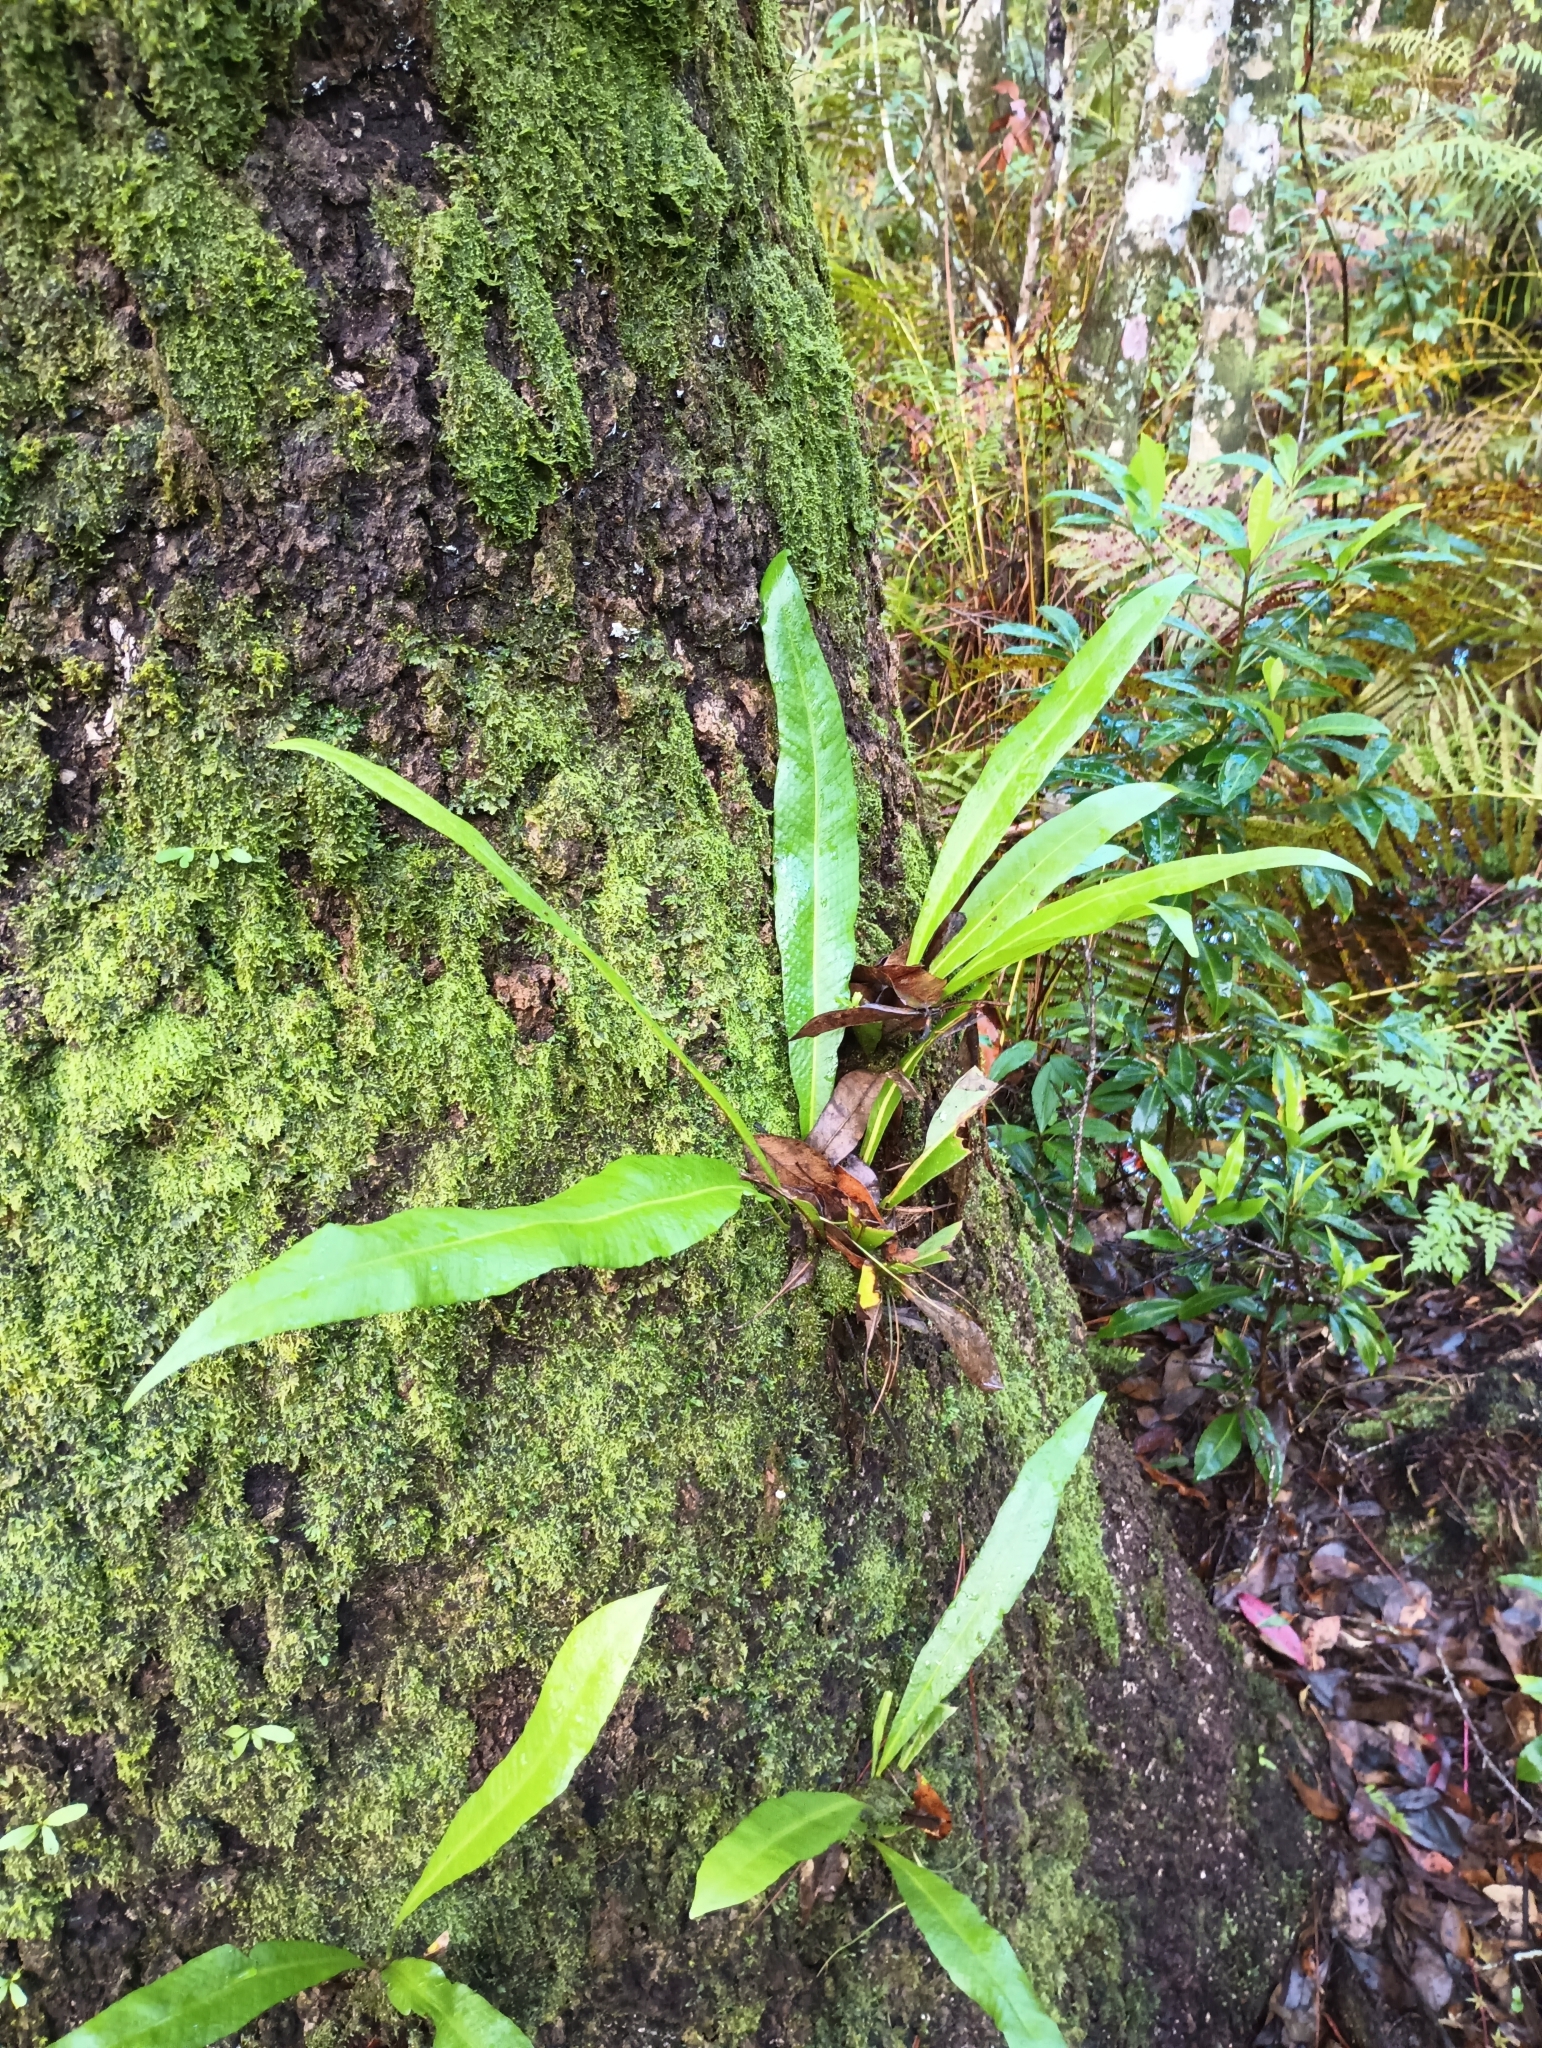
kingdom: Plantae
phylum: Tracheophyta
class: Polypodiopsida
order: Polypodiales
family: Polypodiaceae
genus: Campyloneurum
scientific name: Campyloneurum phyllitidis
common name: Cow-tongue fern
